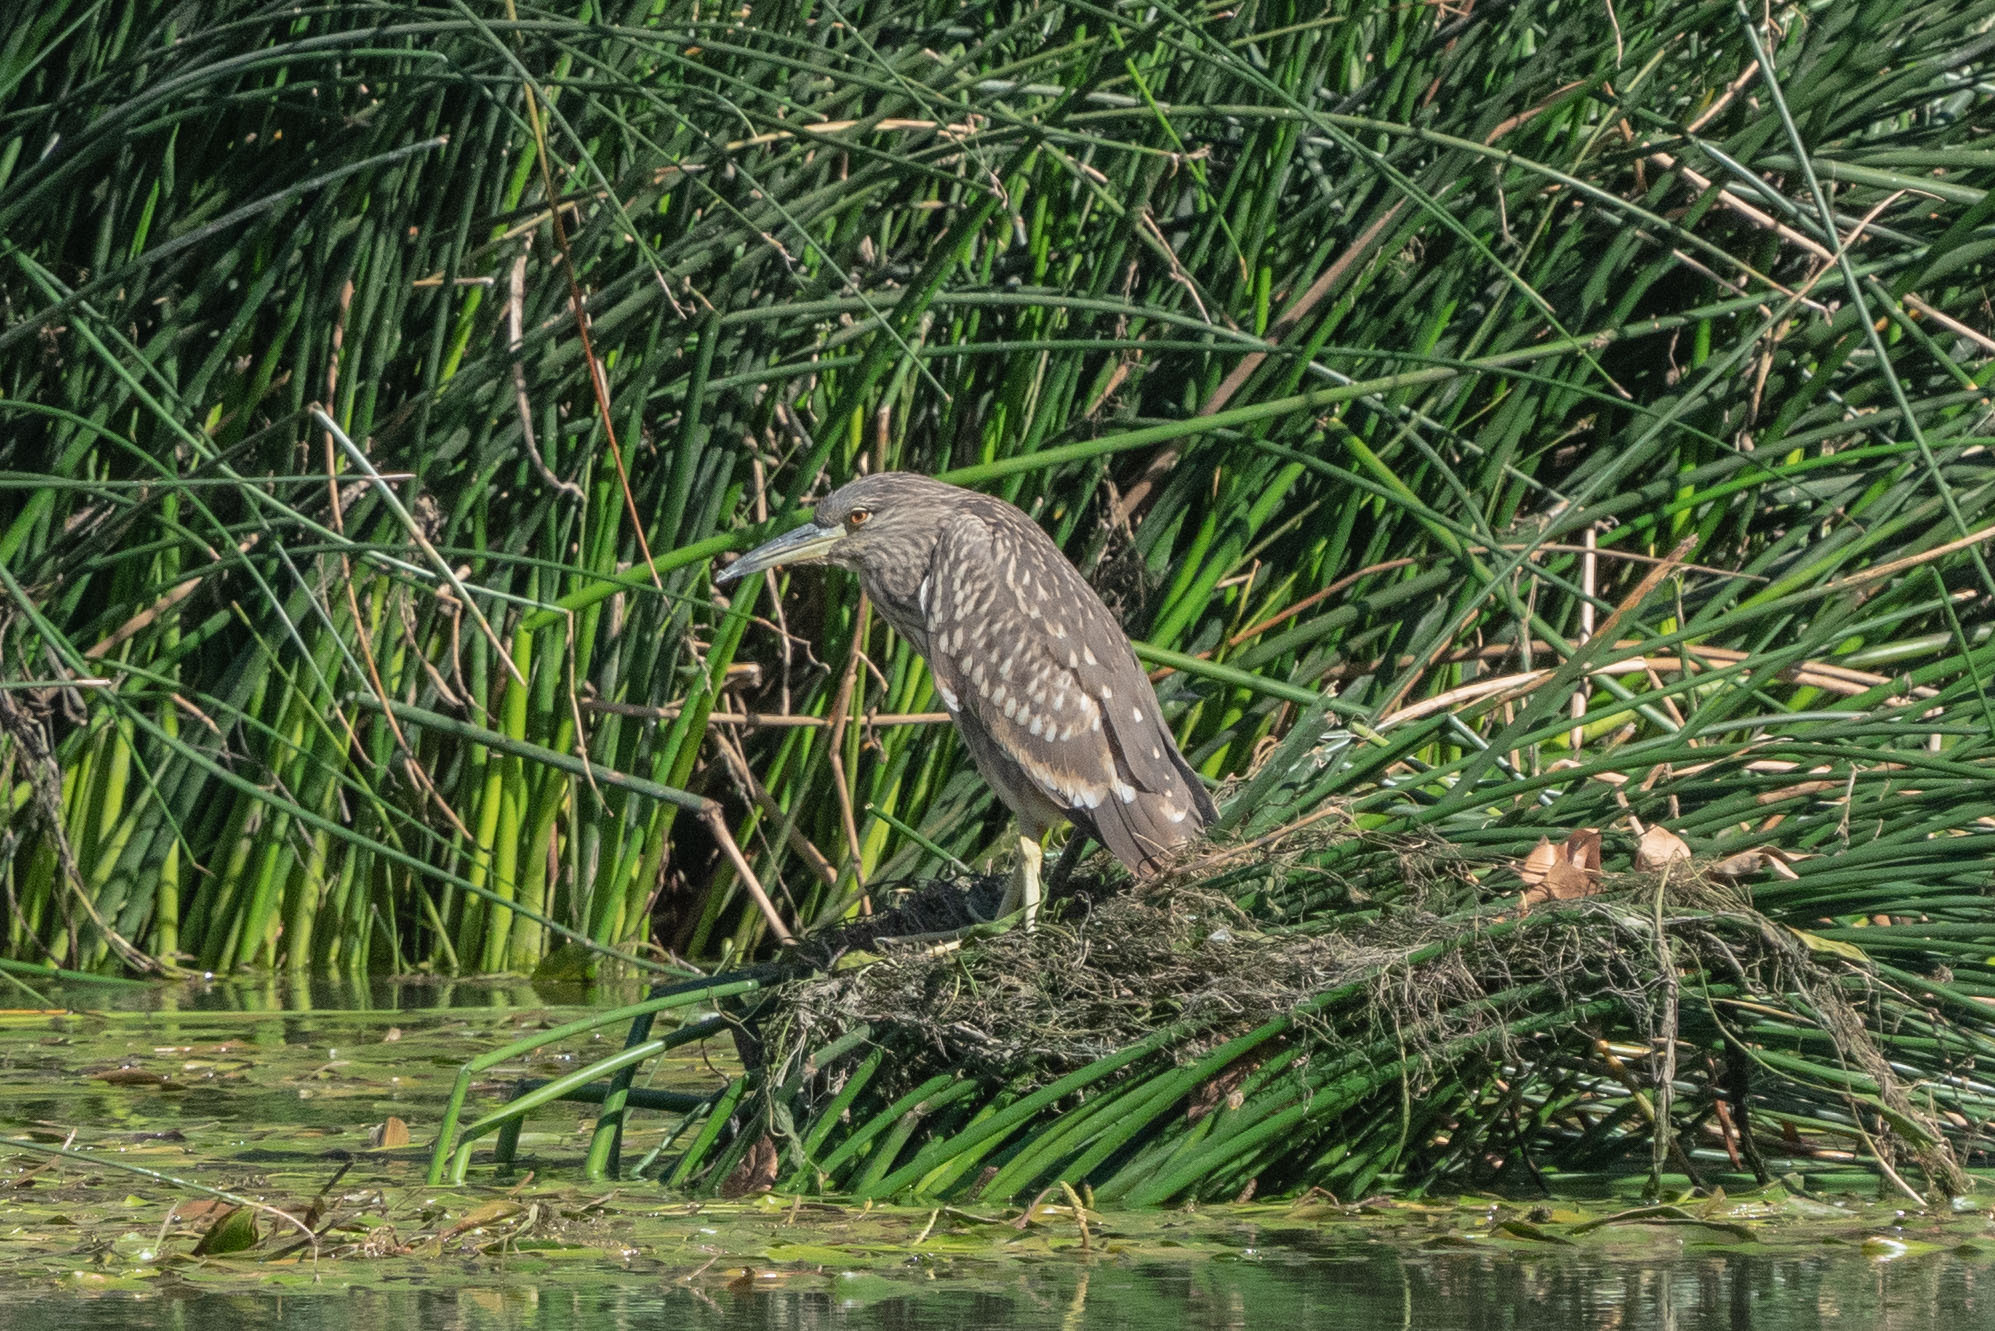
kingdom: Animalia
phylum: Chordata
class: Aves
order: Pelecaniformes
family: Ardeidae
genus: Nycticorax
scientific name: Nycticorax nycticorax
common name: Black-crowned night heron
